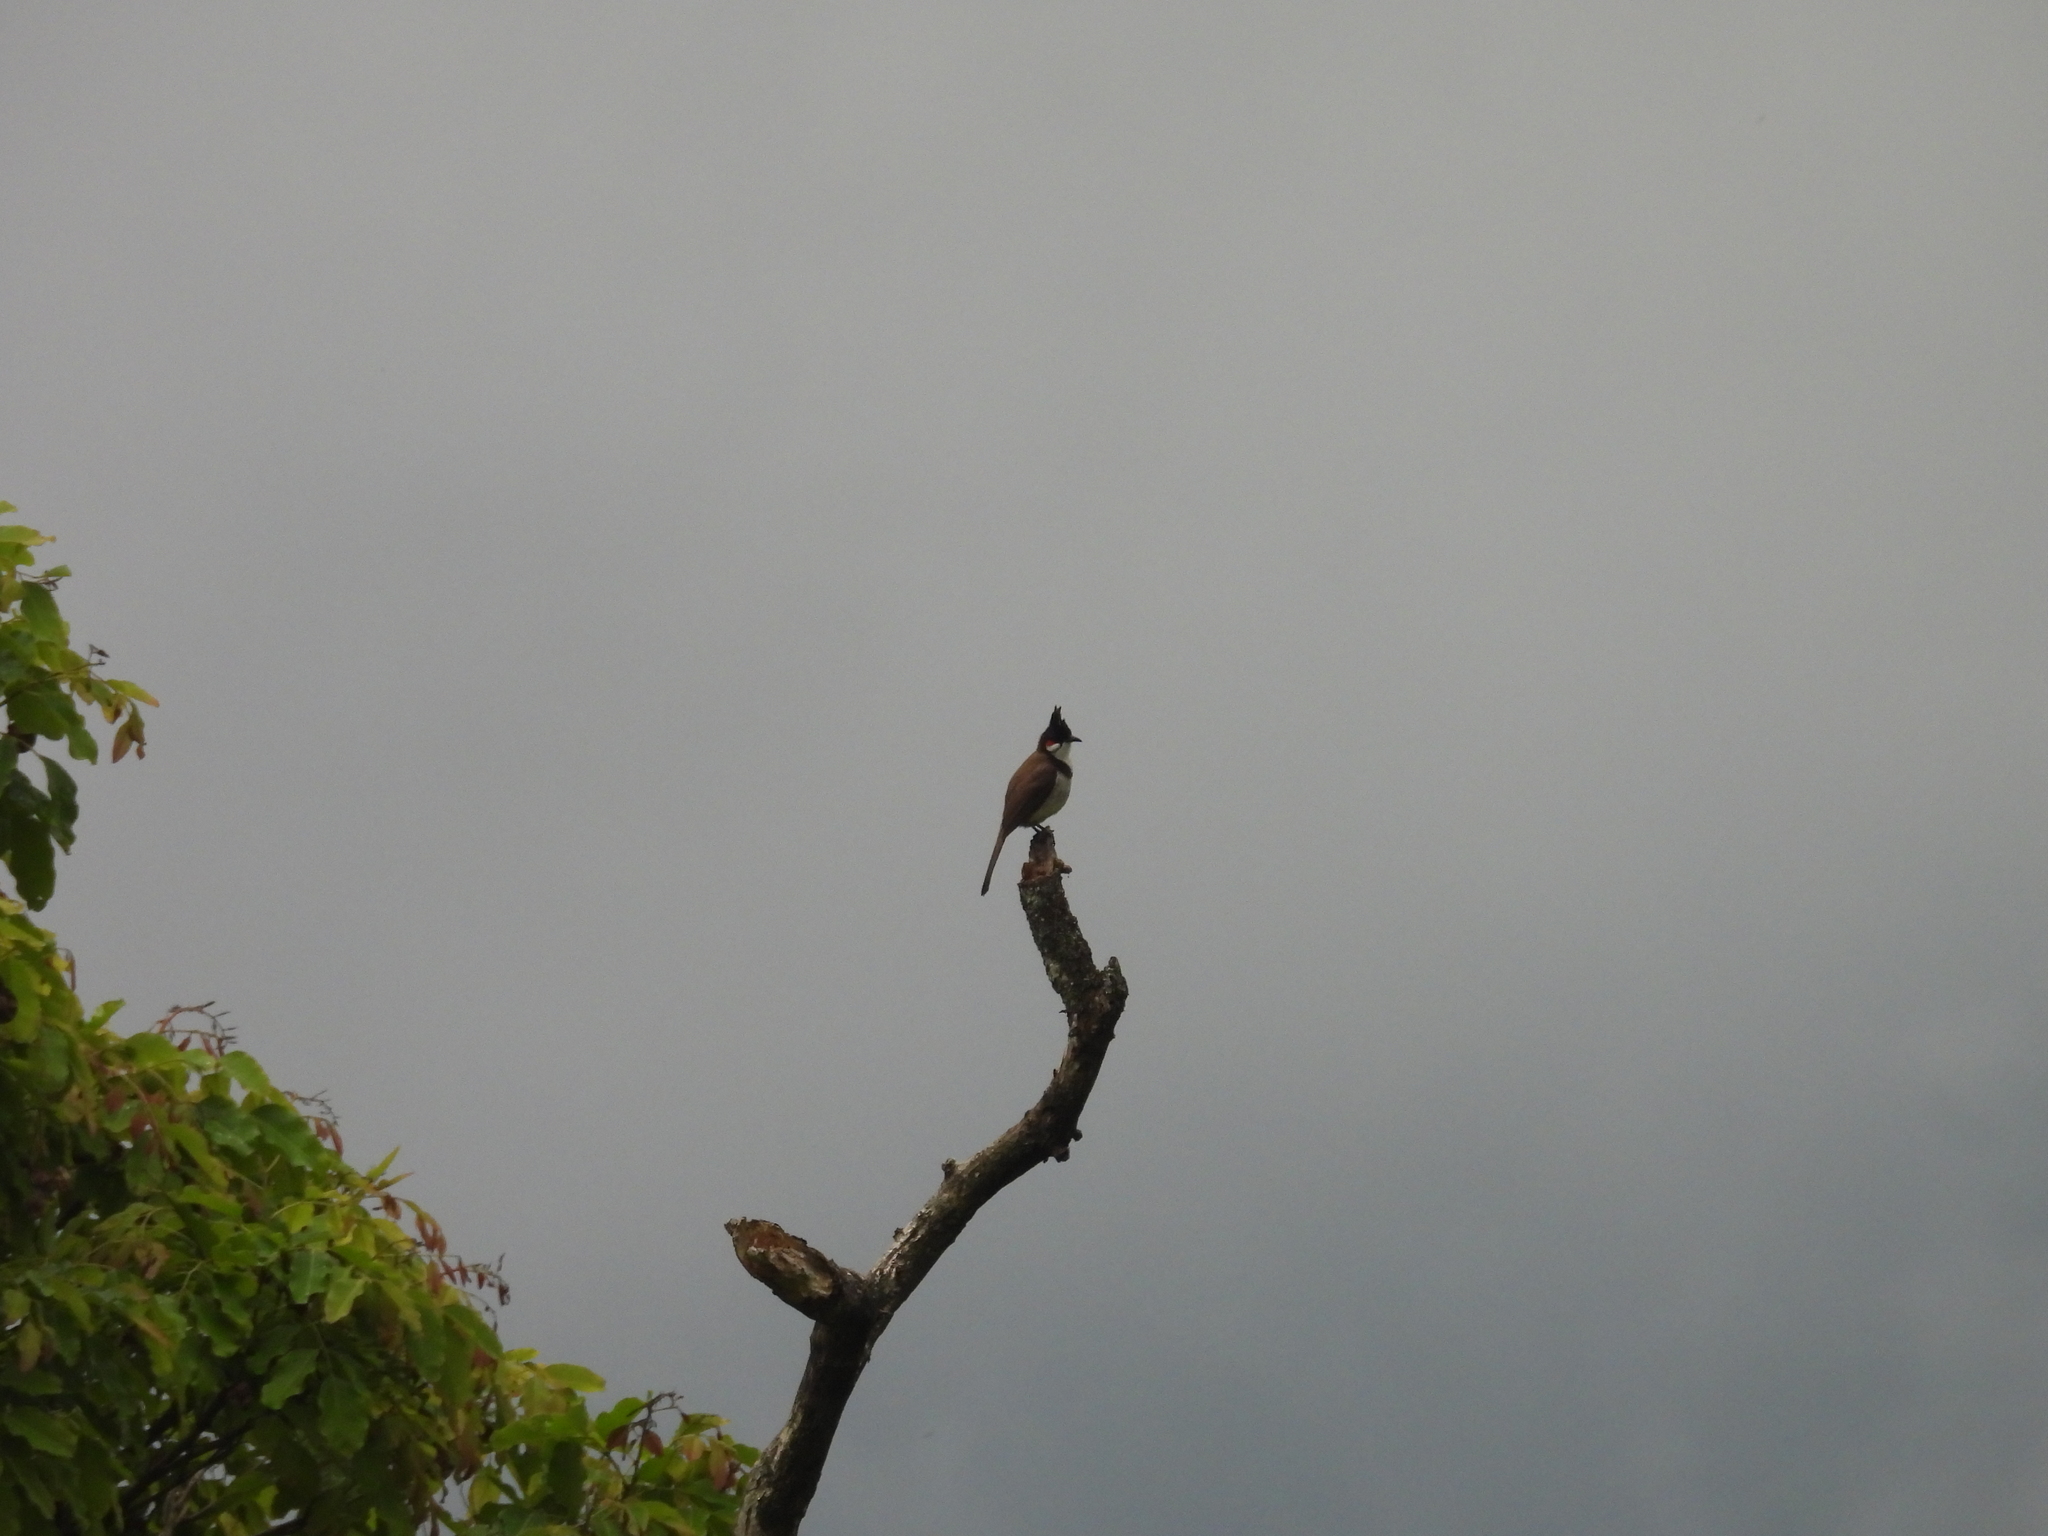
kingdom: Animalia
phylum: Chordata
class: Aves
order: Passeriformes
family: Pycnonotidae
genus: Pycnonotus
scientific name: Pycnonotus jocosus
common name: Red-whiskered bulbul
